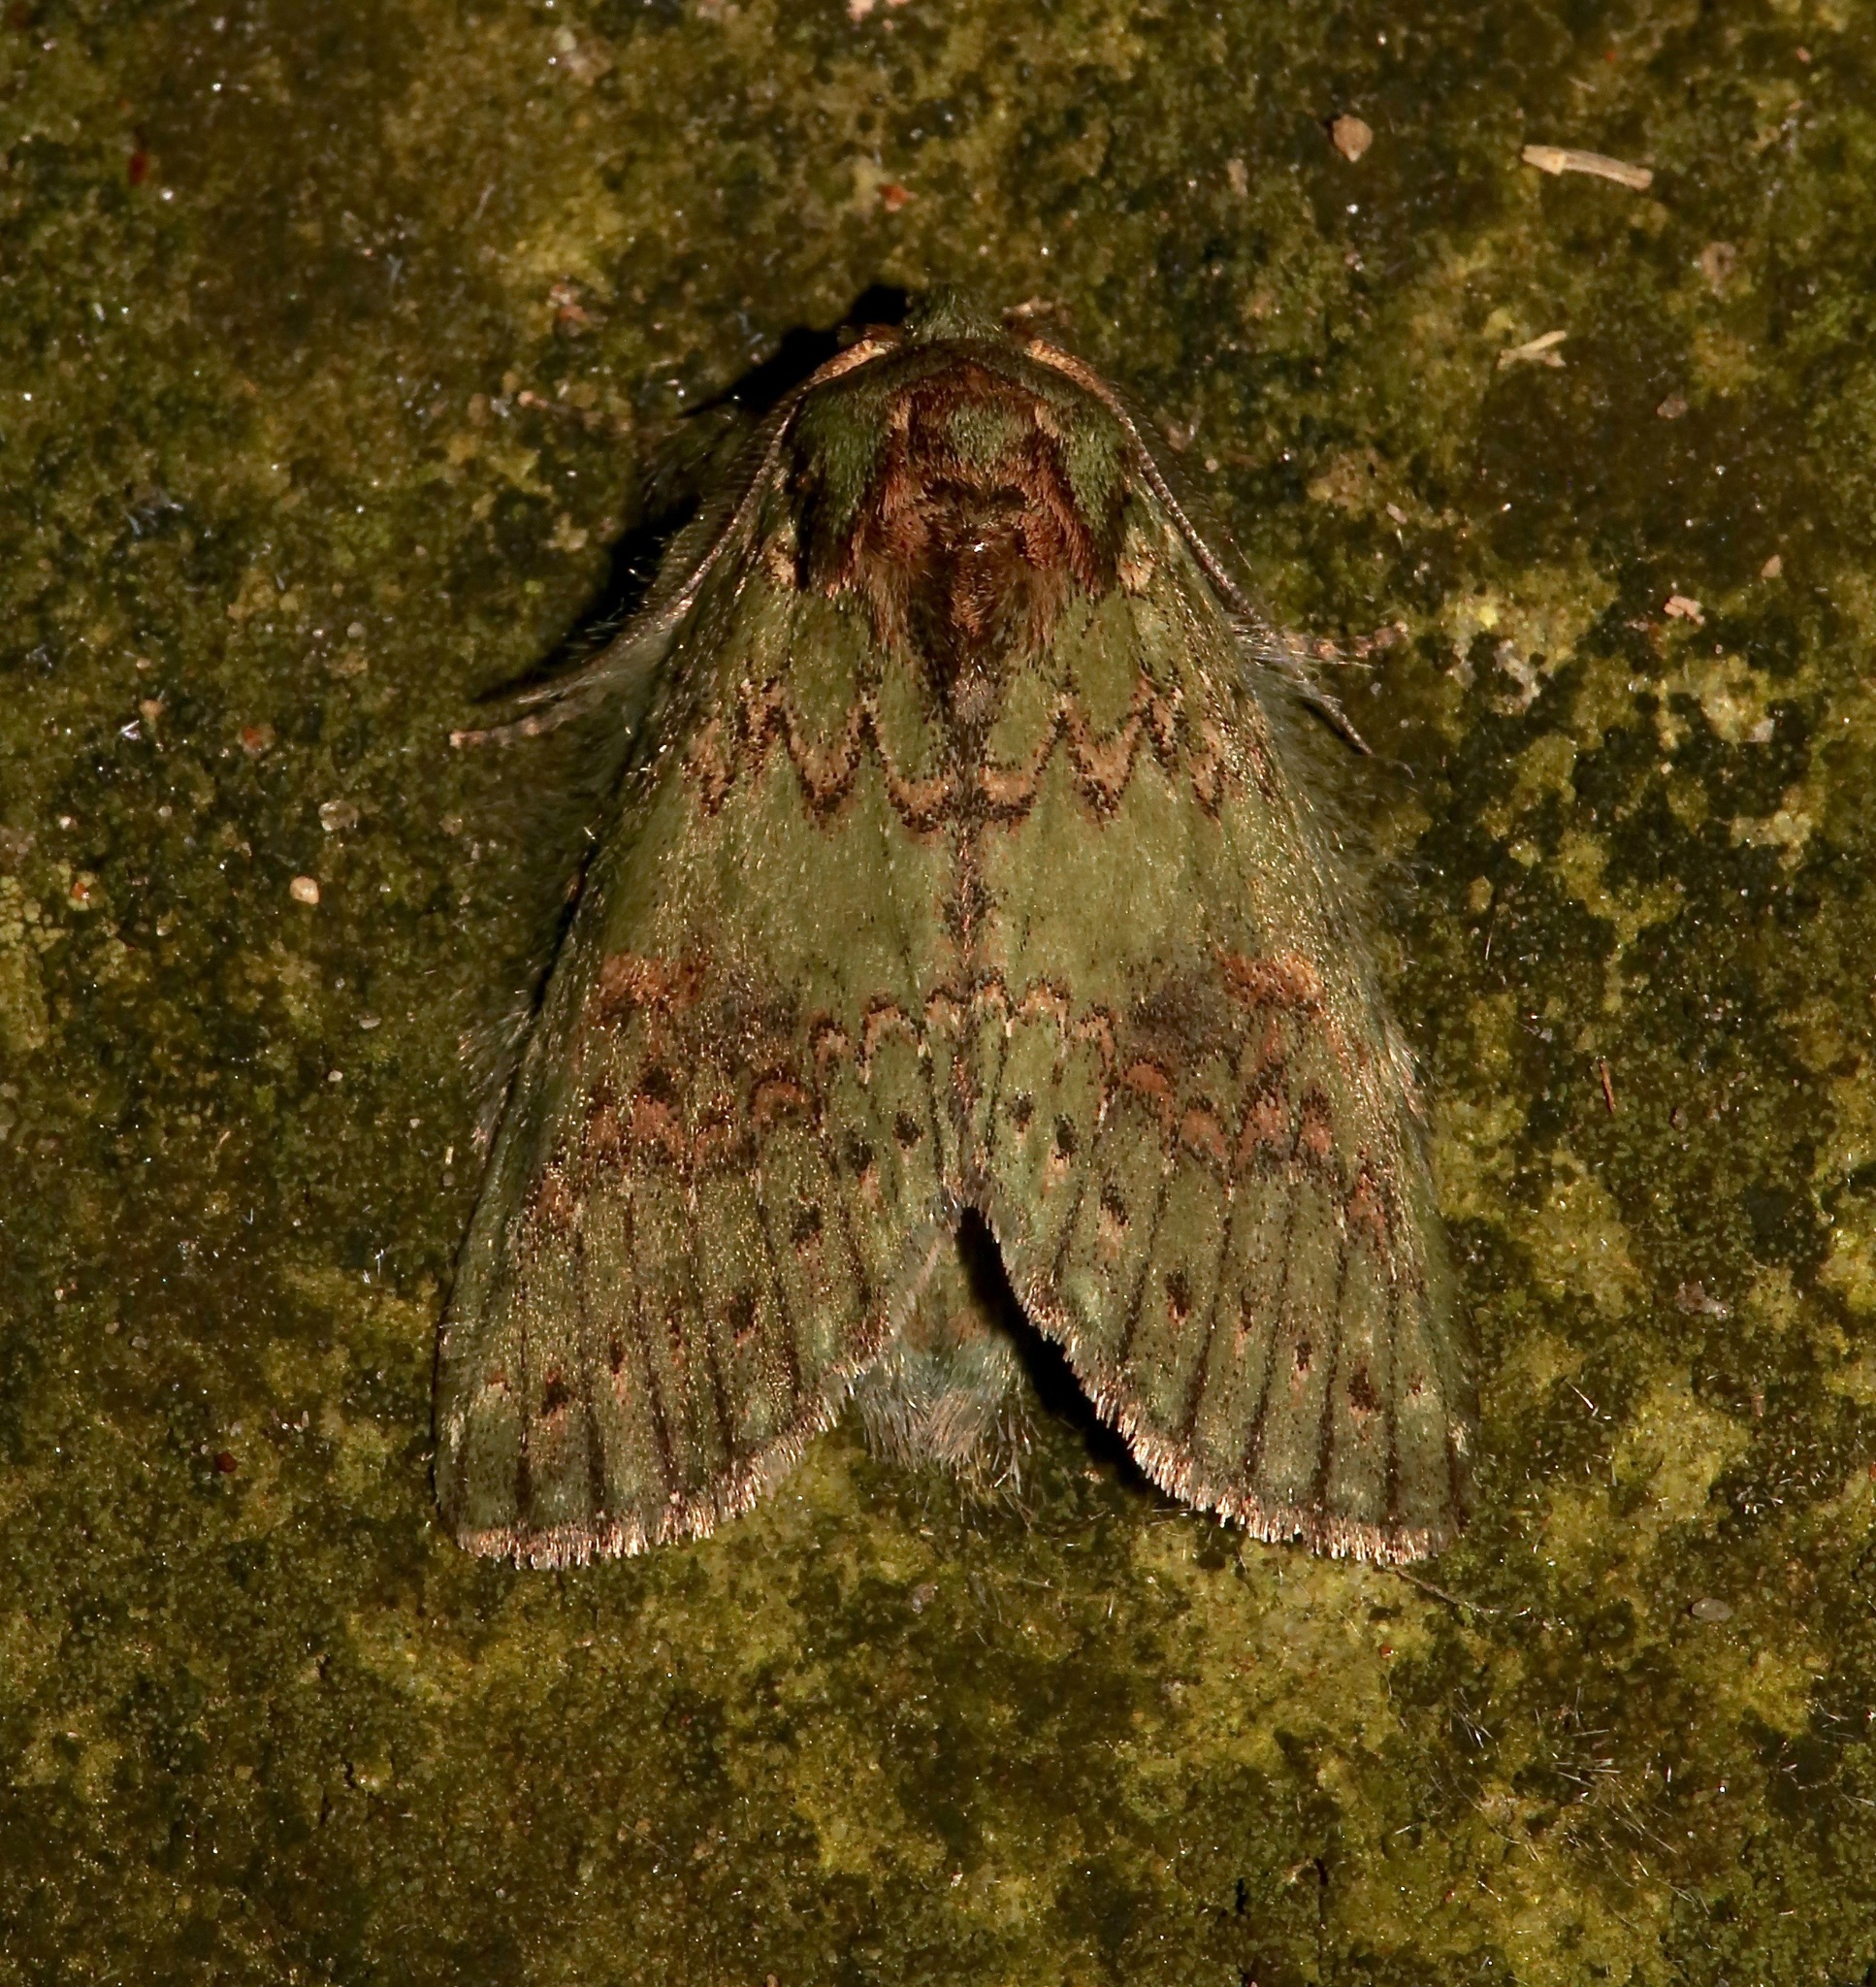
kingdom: Animalia
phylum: Arthropoda
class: Insecta
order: Lepidoptera
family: Notodontidae
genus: Disphragis
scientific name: Disphragis Cecrita biundata
